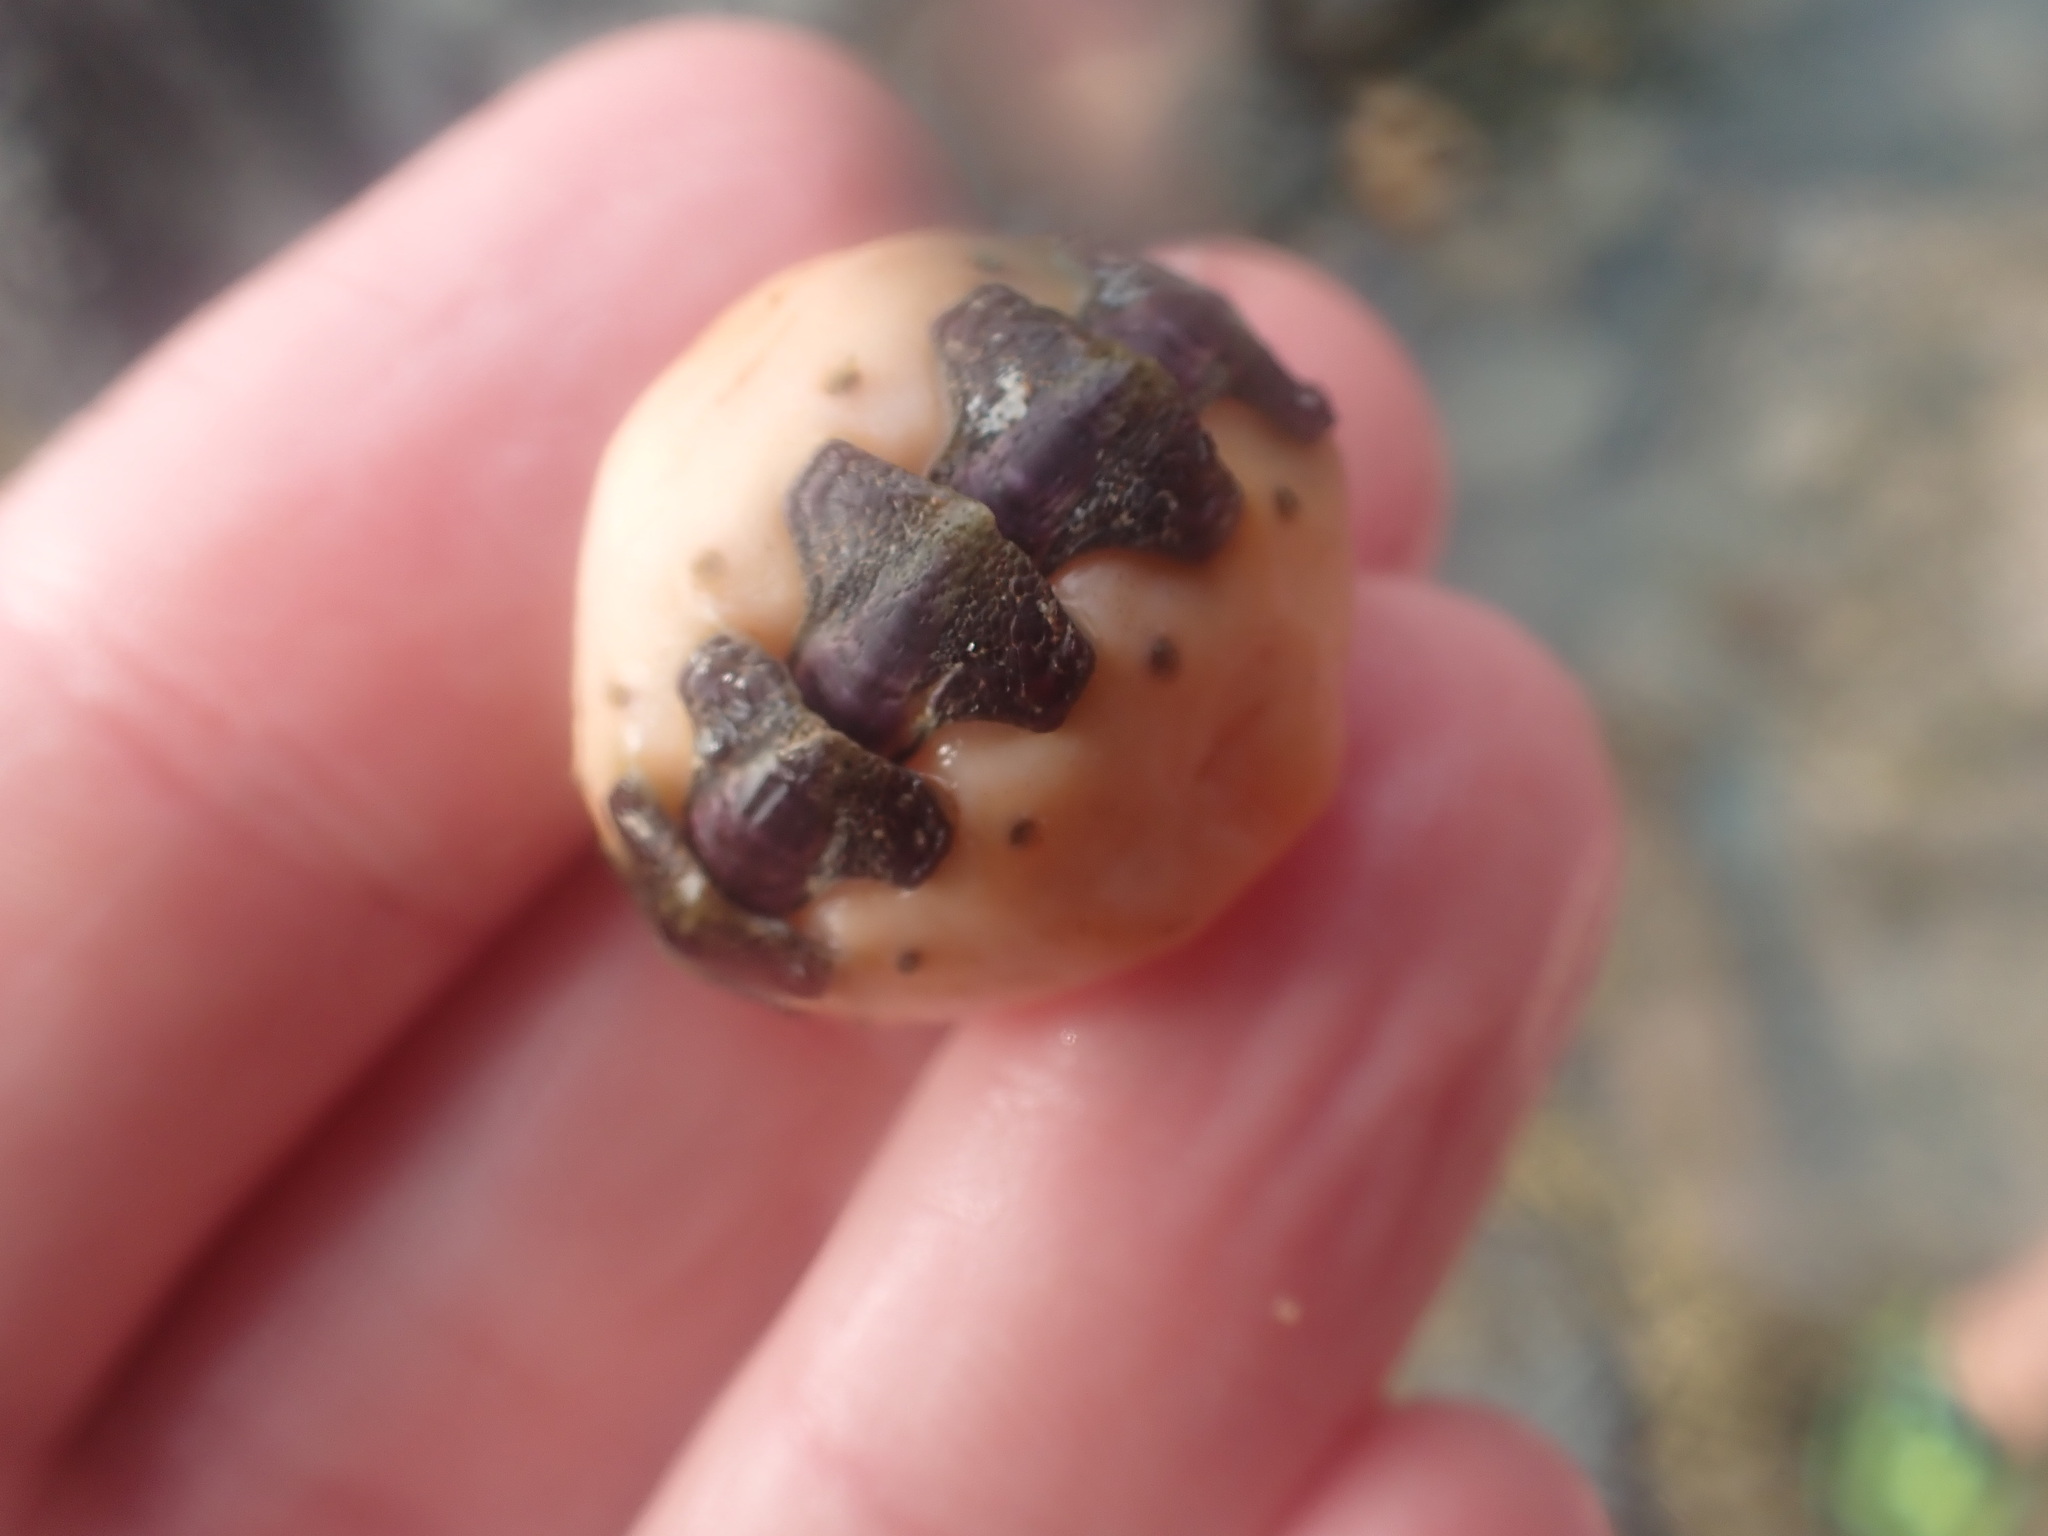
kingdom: Animalia
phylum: Mollusca
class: Polyplacophora
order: Chitonida
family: Acanthochitonidae
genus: Notoplax
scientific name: Notoplax violacea
